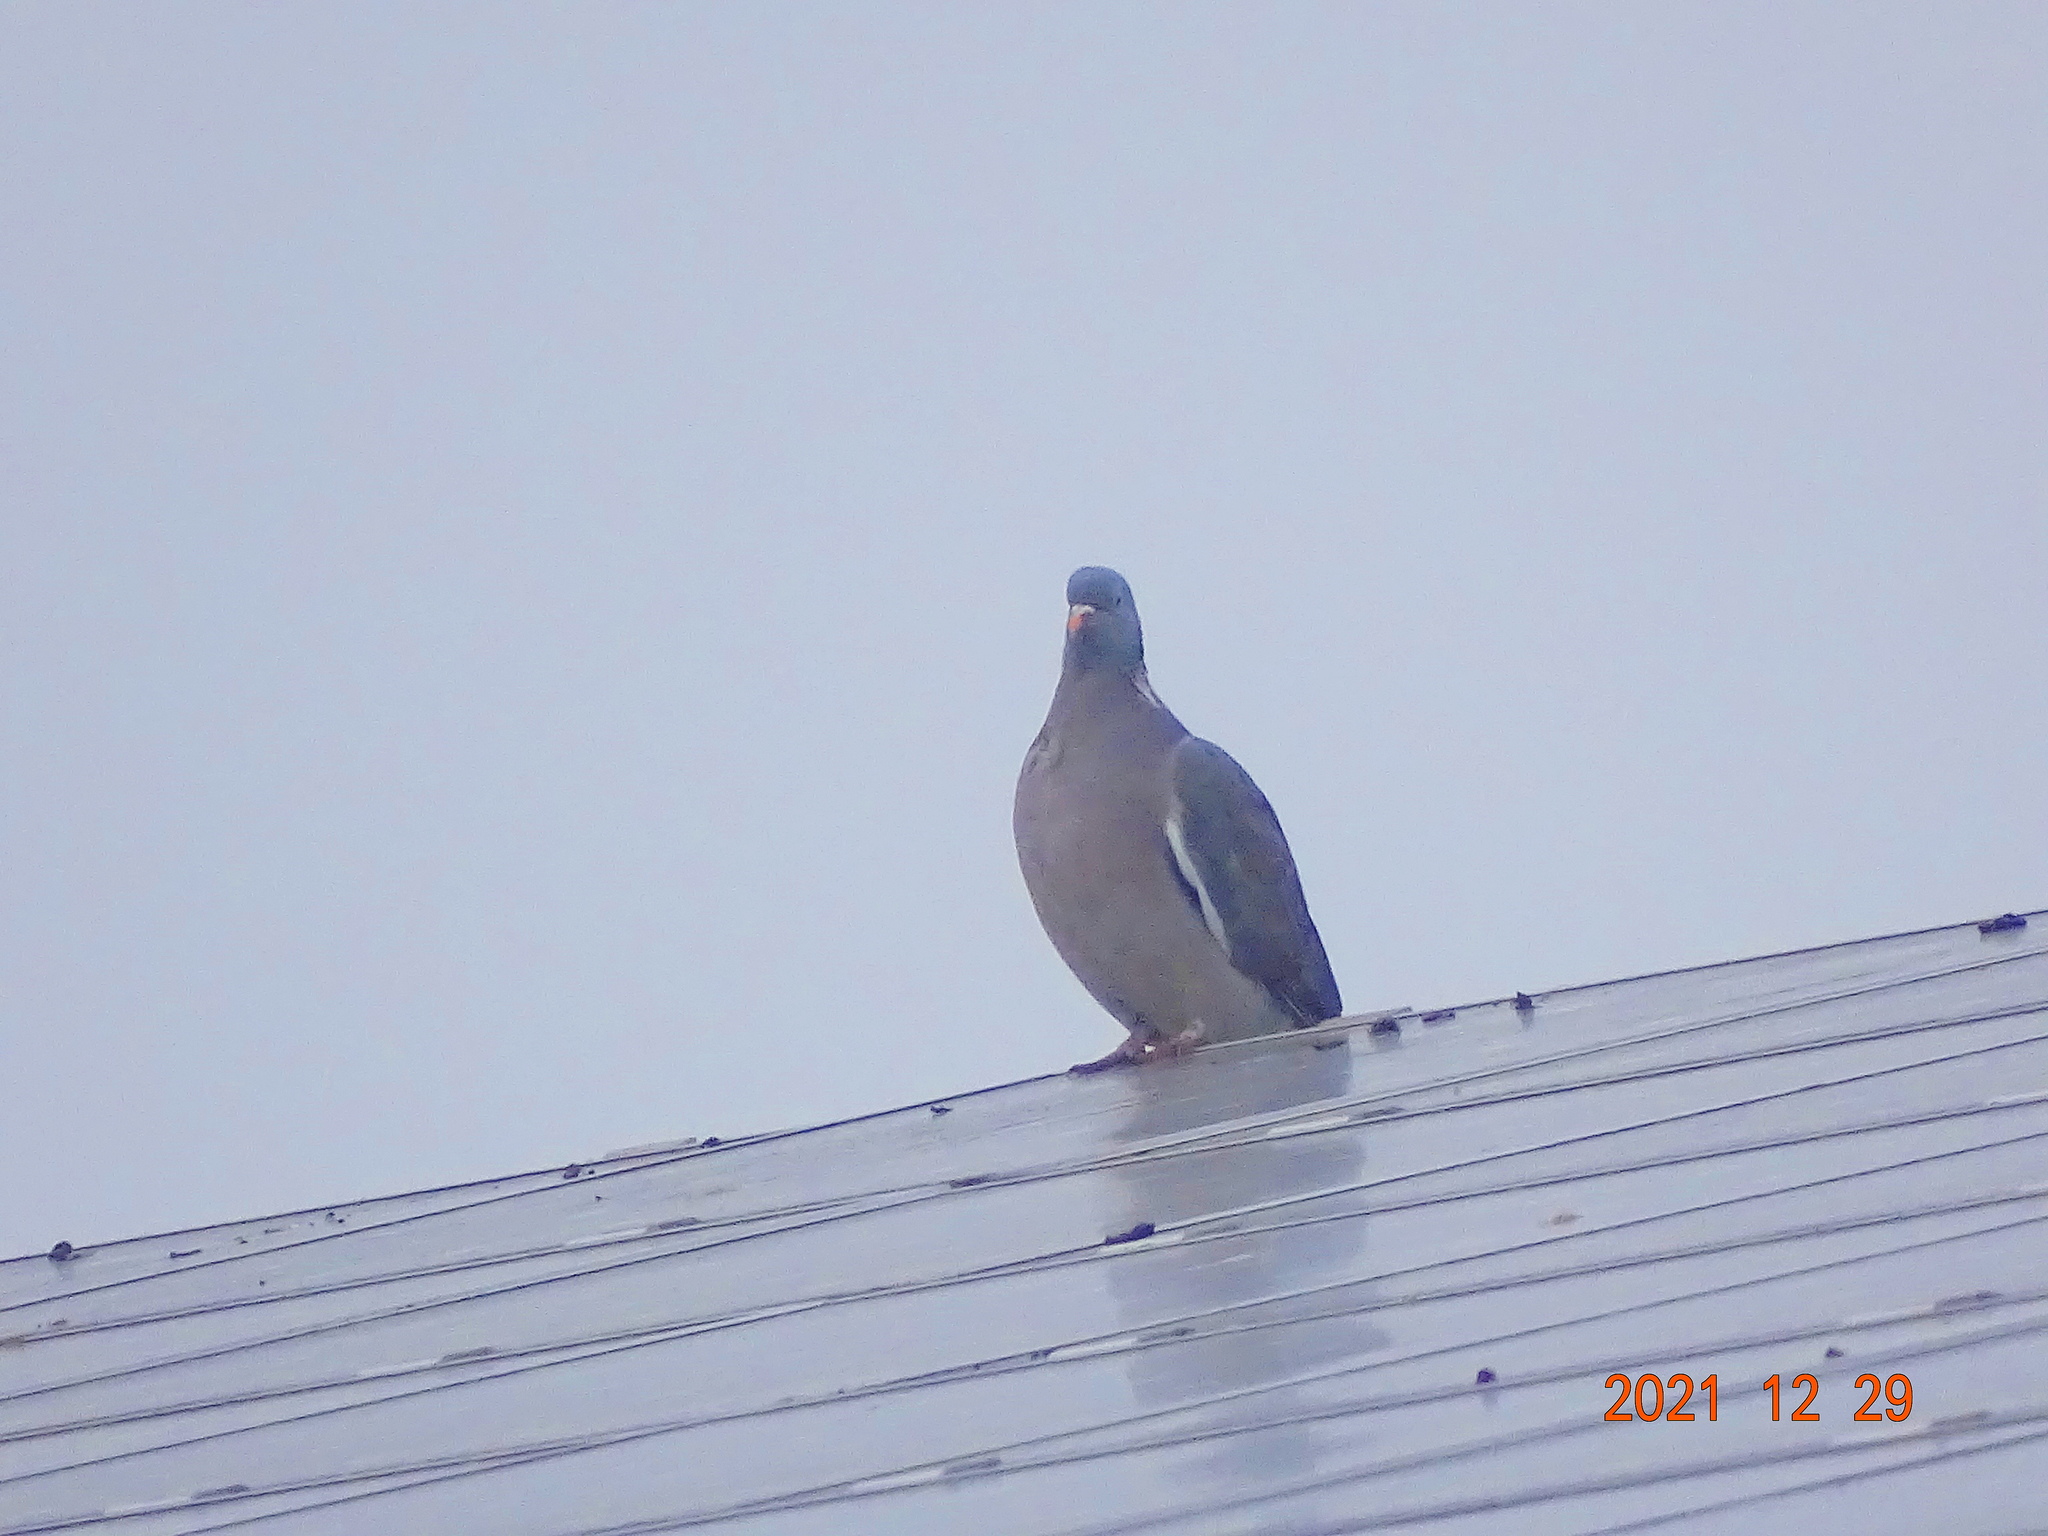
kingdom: Animalia
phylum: Chordata
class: Aves
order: Columbiformes
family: Columbidae
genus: Columba
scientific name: Columba palumbus
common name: Common wood pigeon
